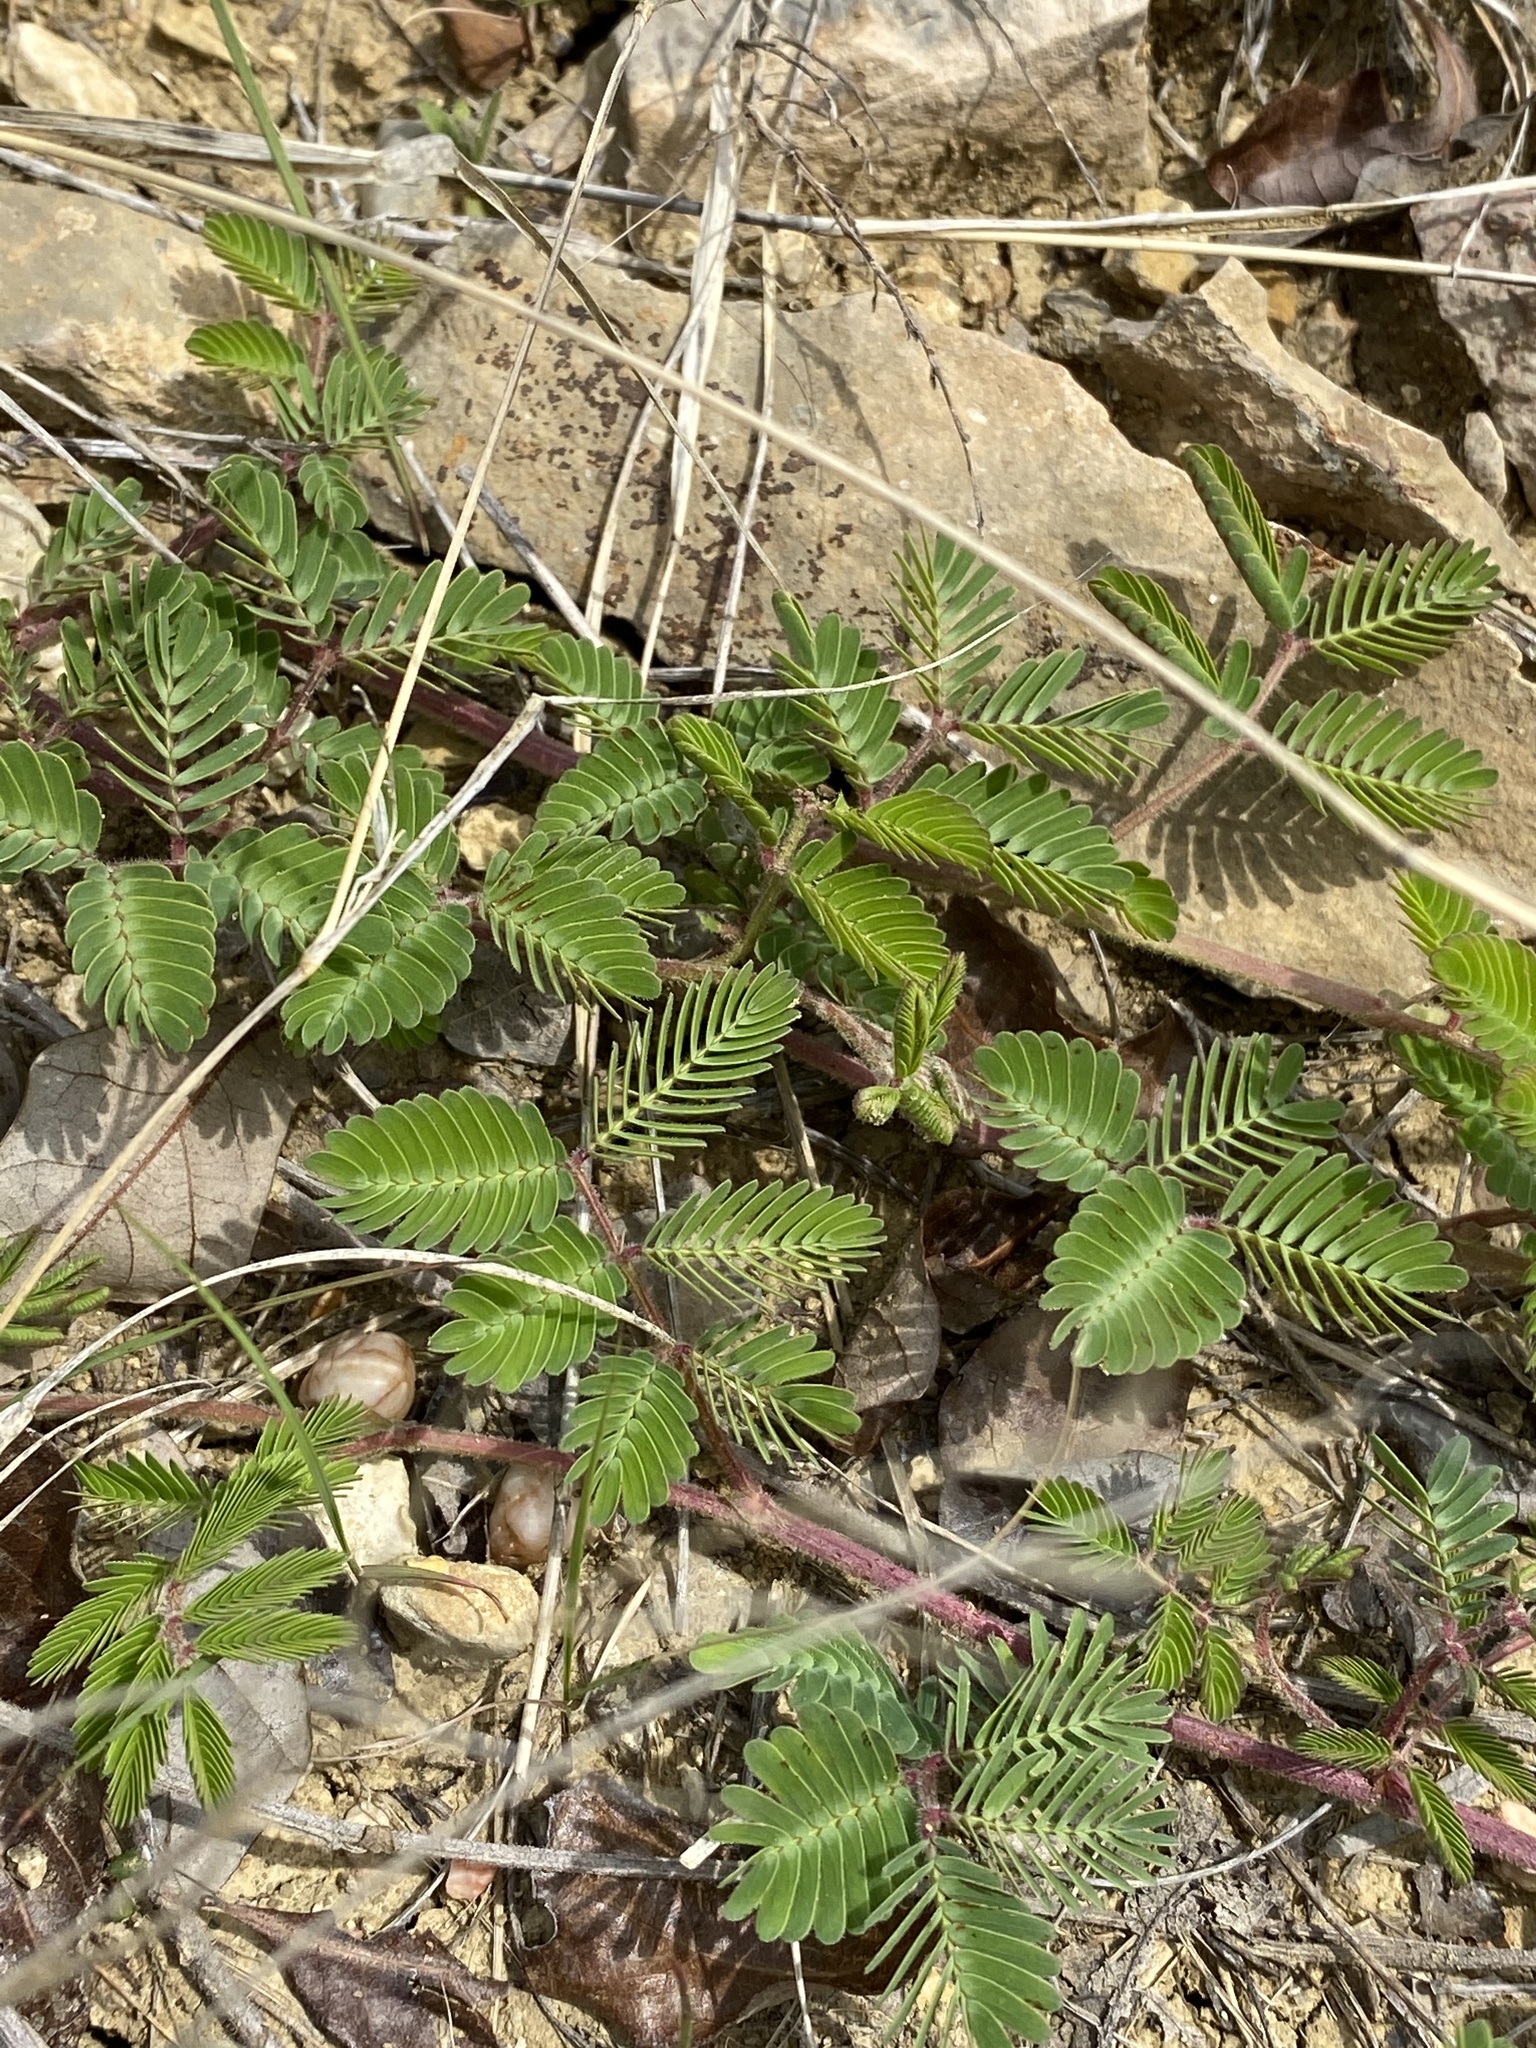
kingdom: Plantae
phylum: Tracheophyta
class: Magnoliopsida
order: Fabales
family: Fabaceae
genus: Neptunia
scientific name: Neptunia lutea
